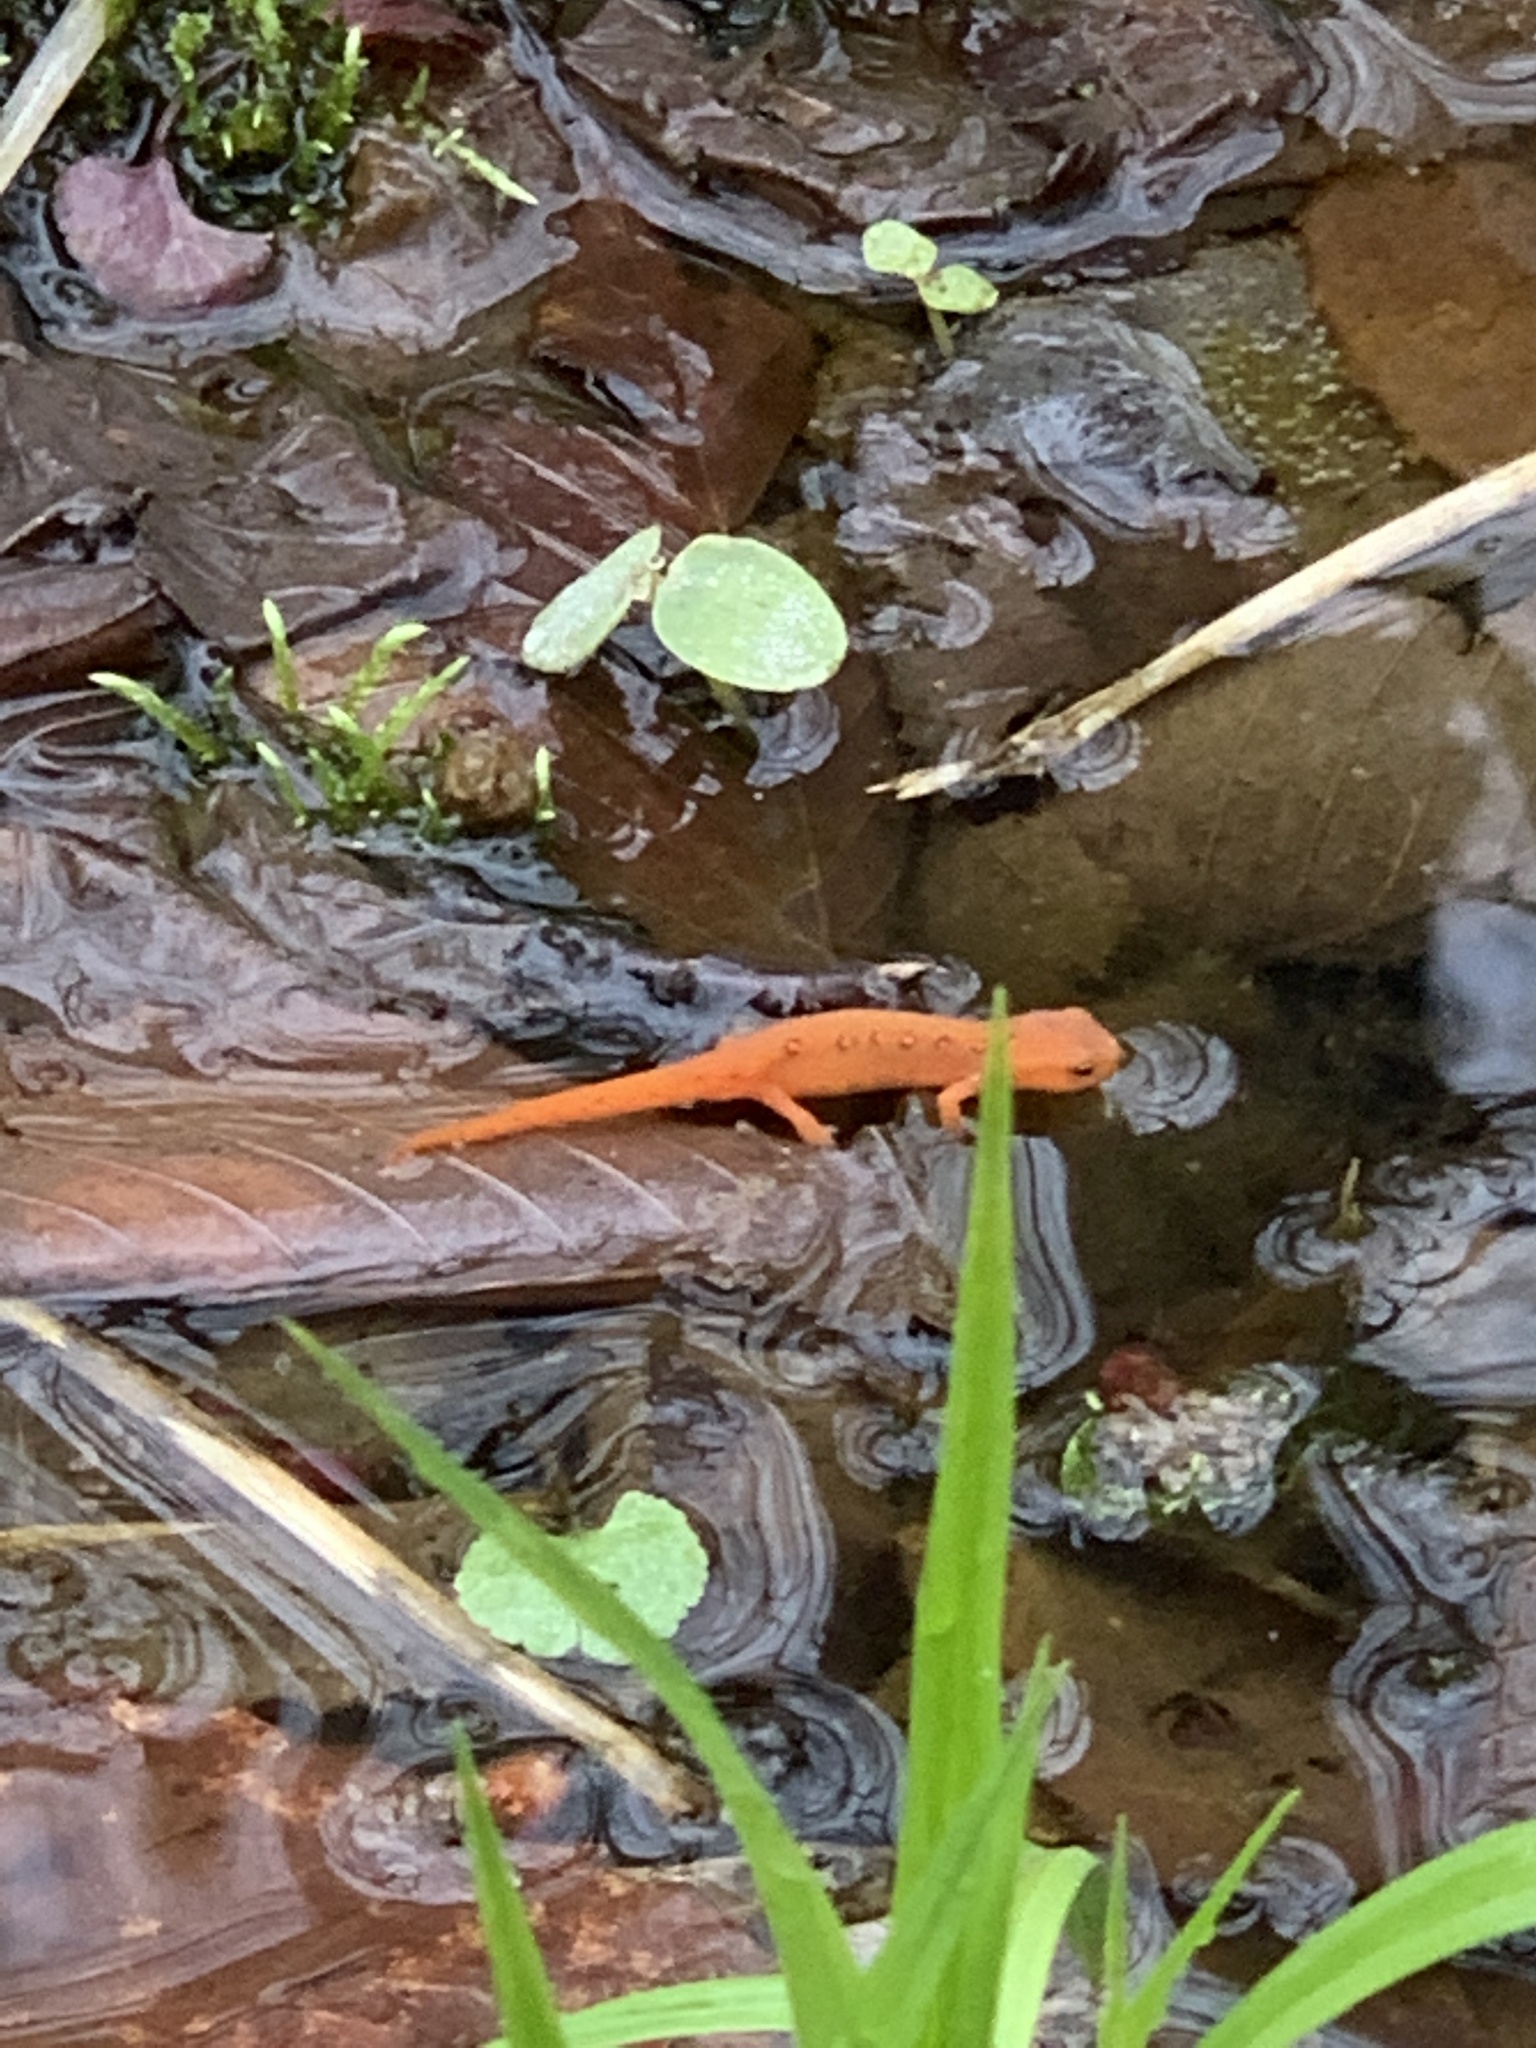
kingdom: Animalia
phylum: Chordata
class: Amphibia
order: Caudata
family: Salamandridae
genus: Notophthalmus
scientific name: Notophthalmus viridescens
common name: Eastern newt
